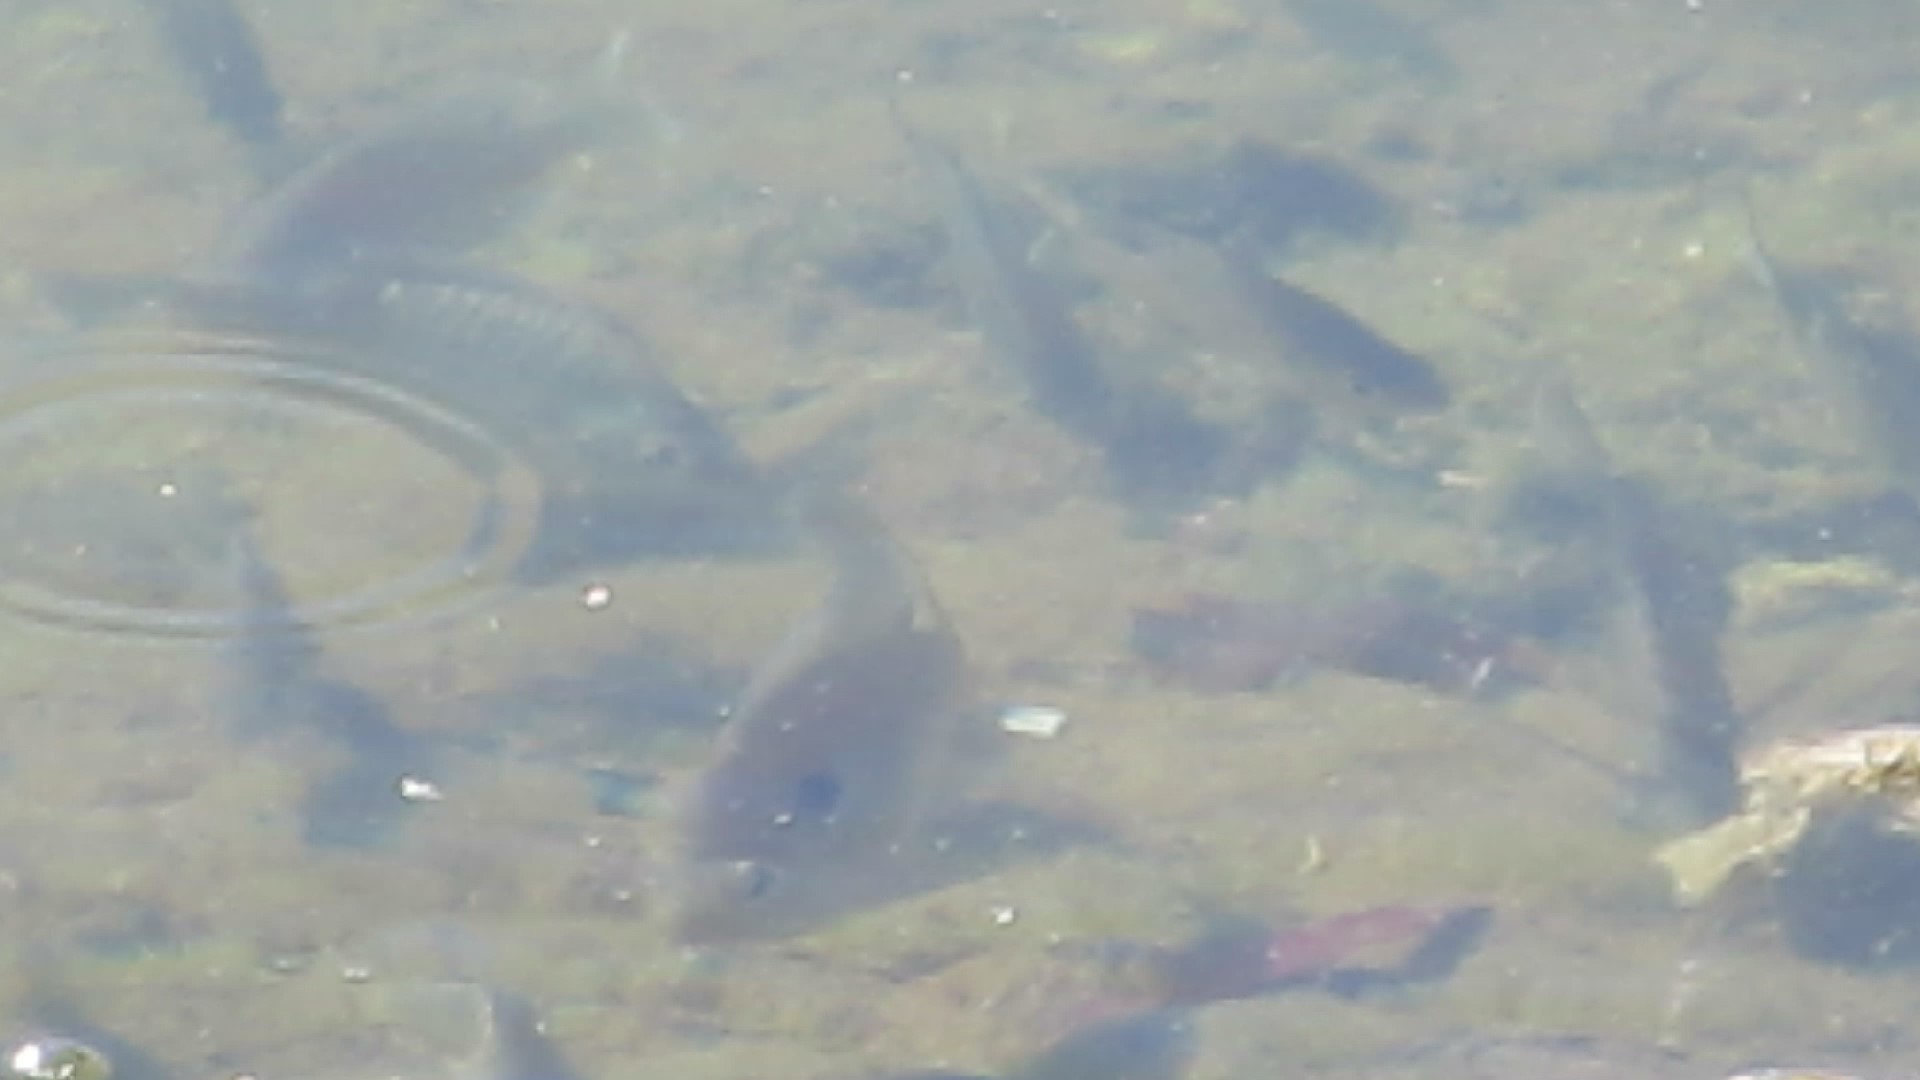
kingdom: Animalia
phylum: Chordata
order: Perciformes
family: Centrarchidae
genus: Lepomis
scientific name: Lepomis macrochirus
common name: Bluegill
